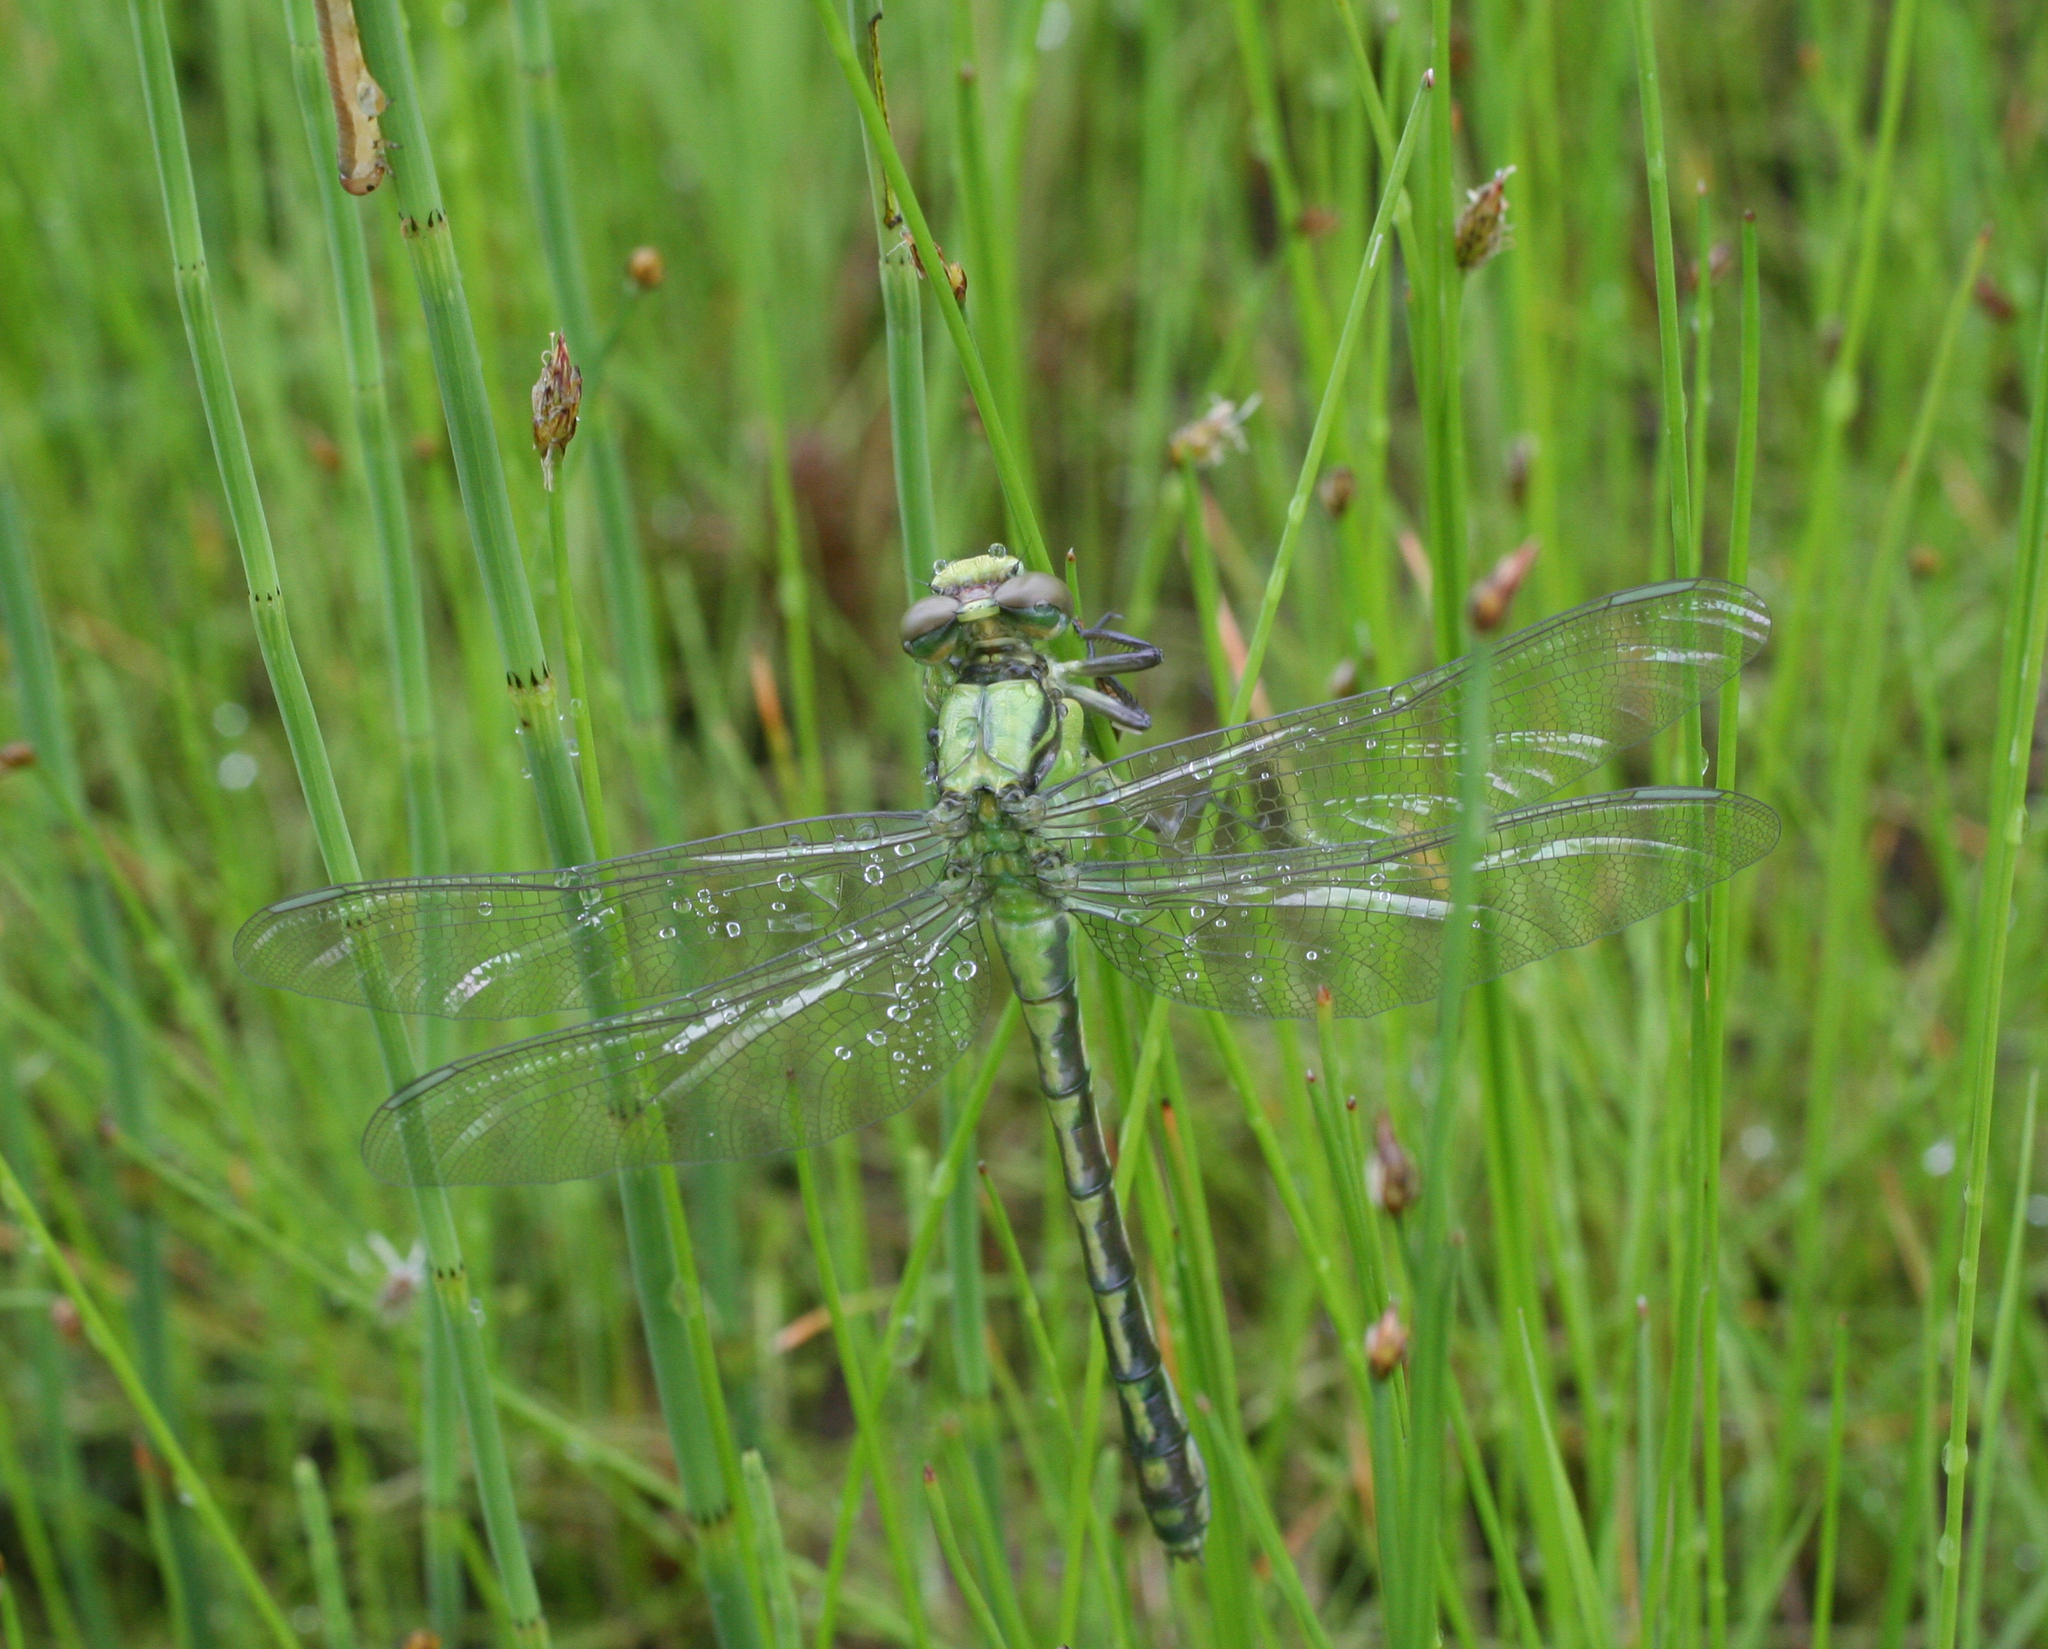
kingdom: Animalia
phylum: Arthropoda
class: Insecta
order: Odonata
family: Gomphidae
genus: Ophiogomphus
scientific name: Ophiogomphus obscurus
